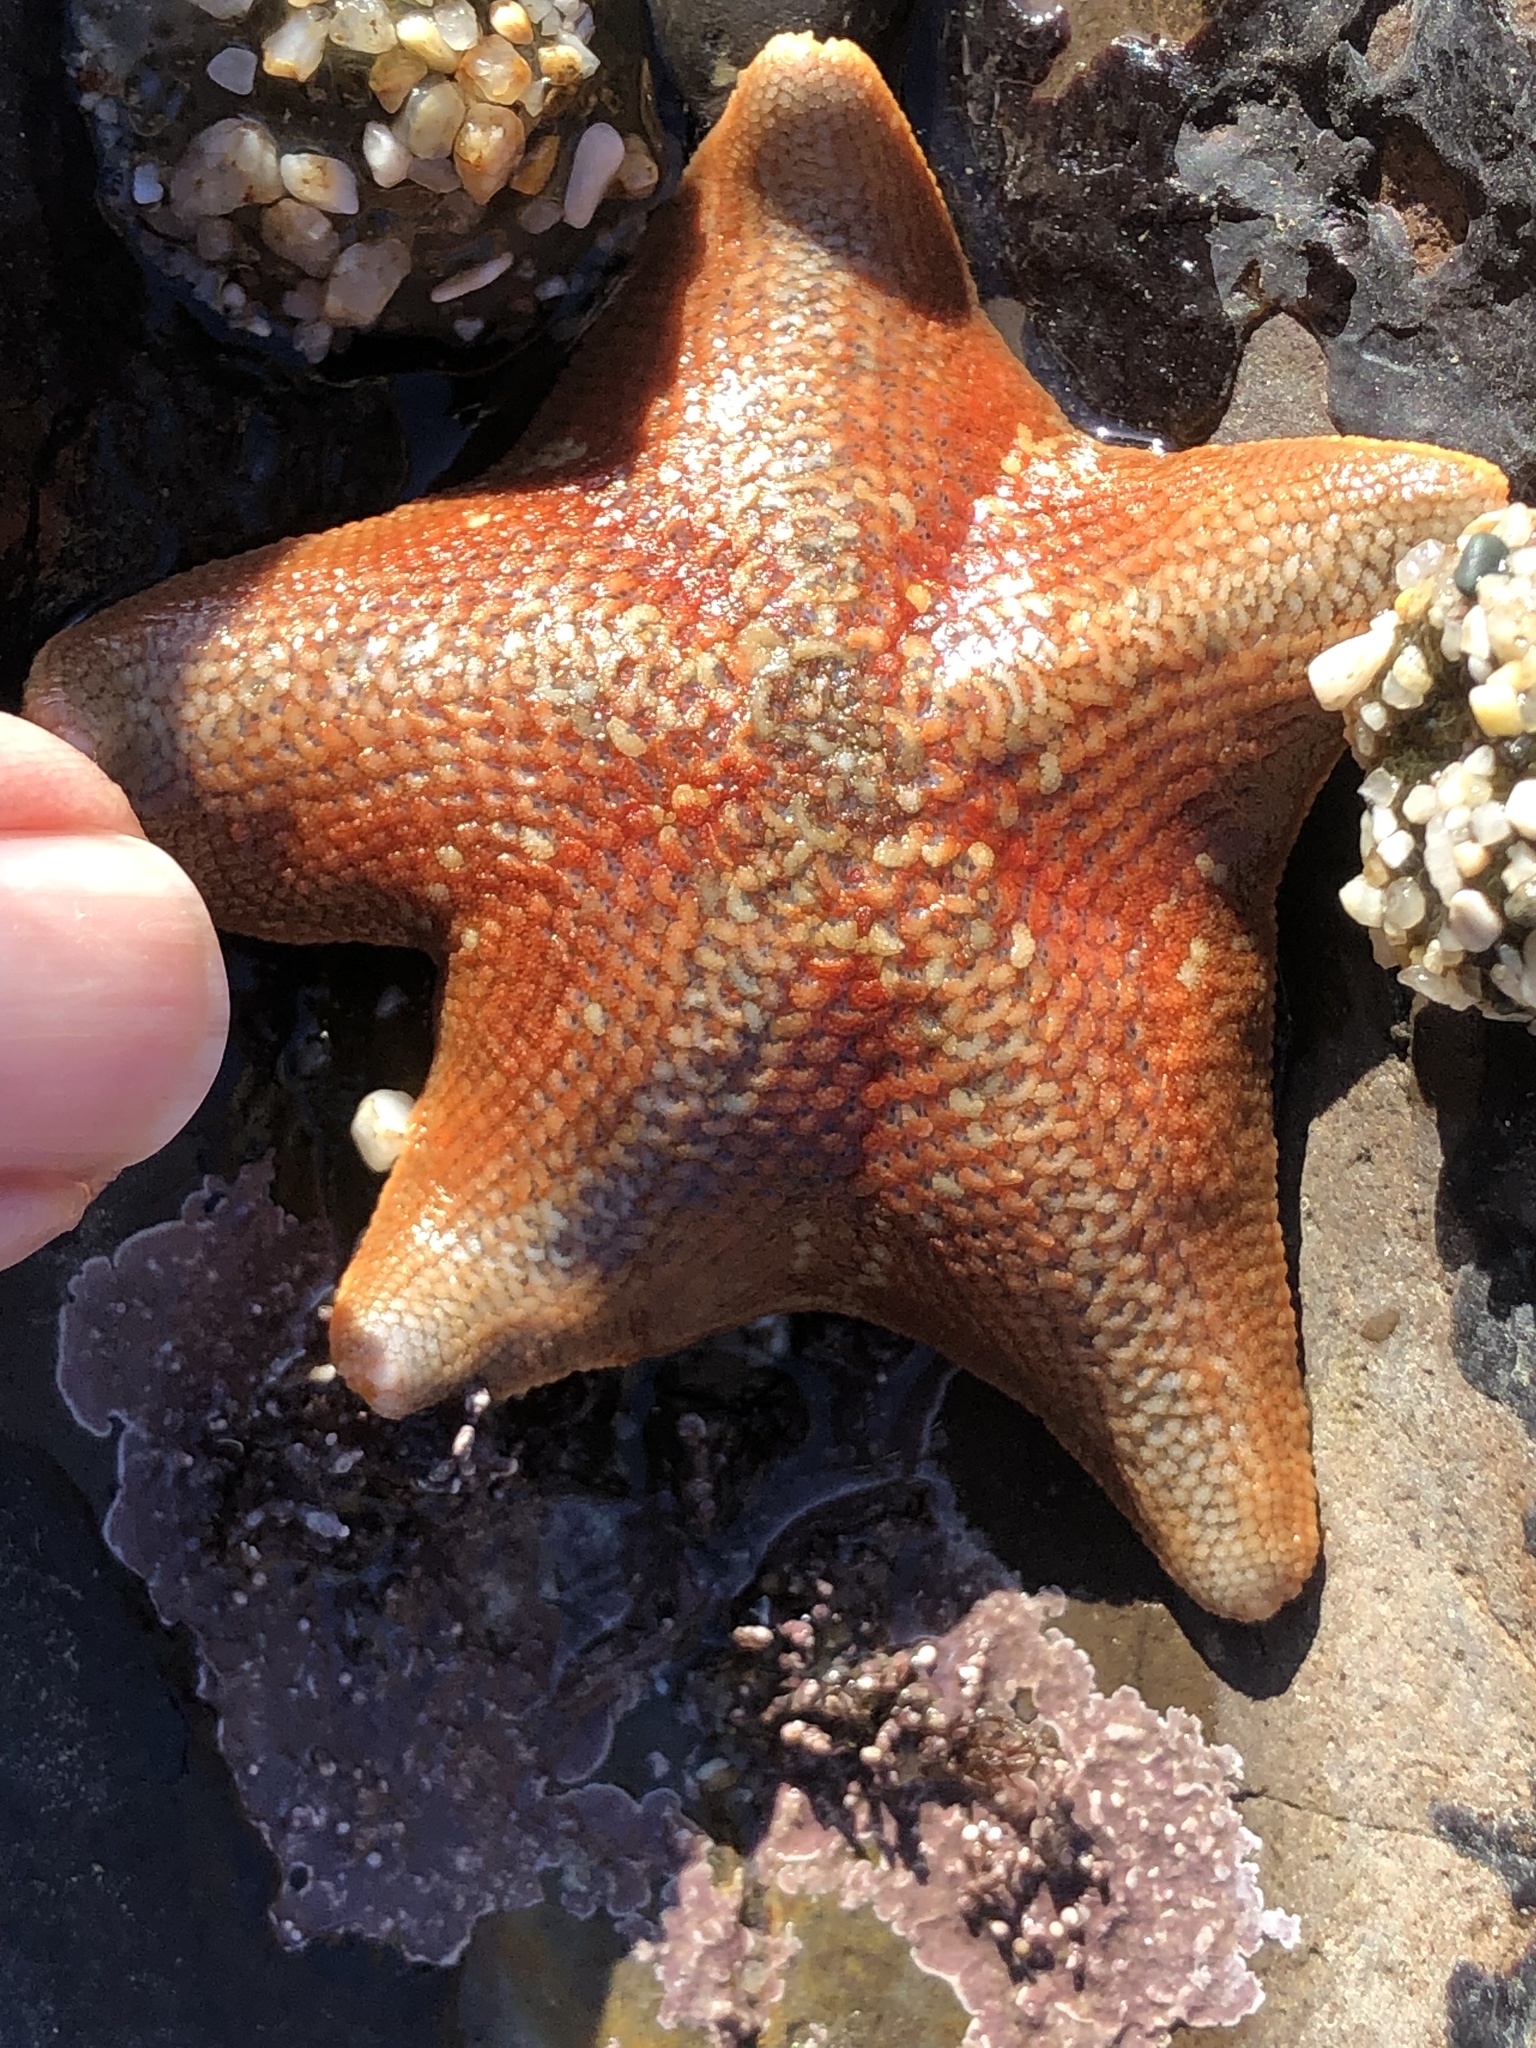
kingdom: Animalia
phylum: Echinodermata
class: Asteroidea
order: Valvatida
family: Asterinidae
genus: Patiria
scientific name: Patiria miniata
